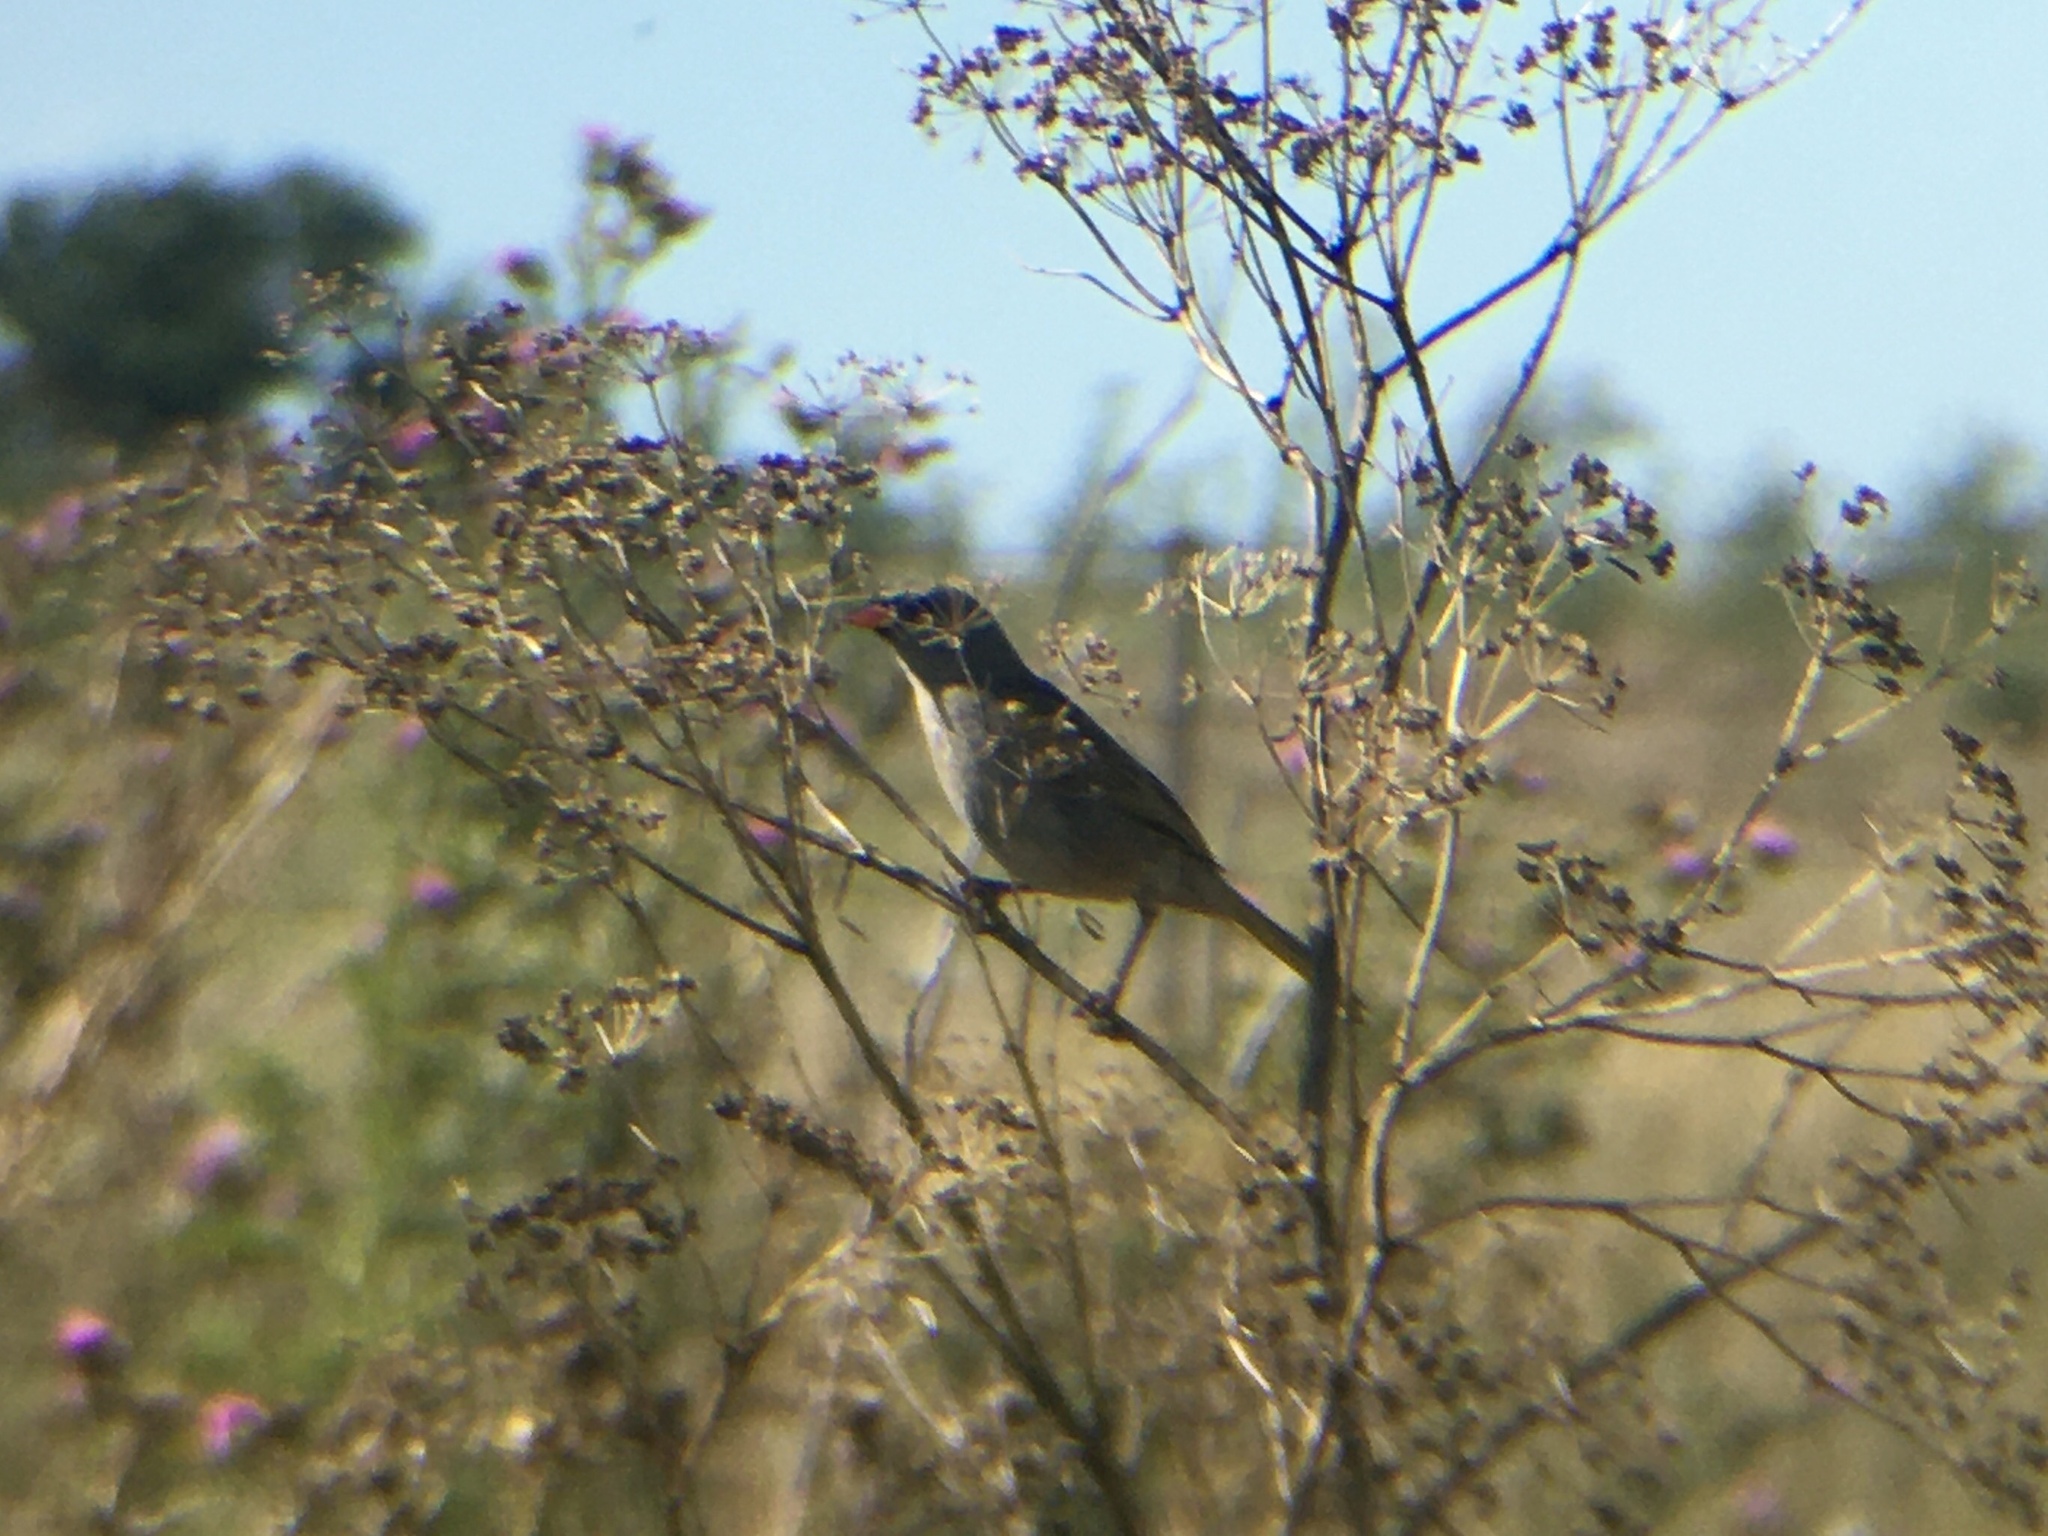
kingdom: Animalia
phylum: Chordata
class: Aves
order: Passeriformes
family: Thraupidae
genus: Embernagra
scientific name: Embernagra platensis
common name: Pampa finch
